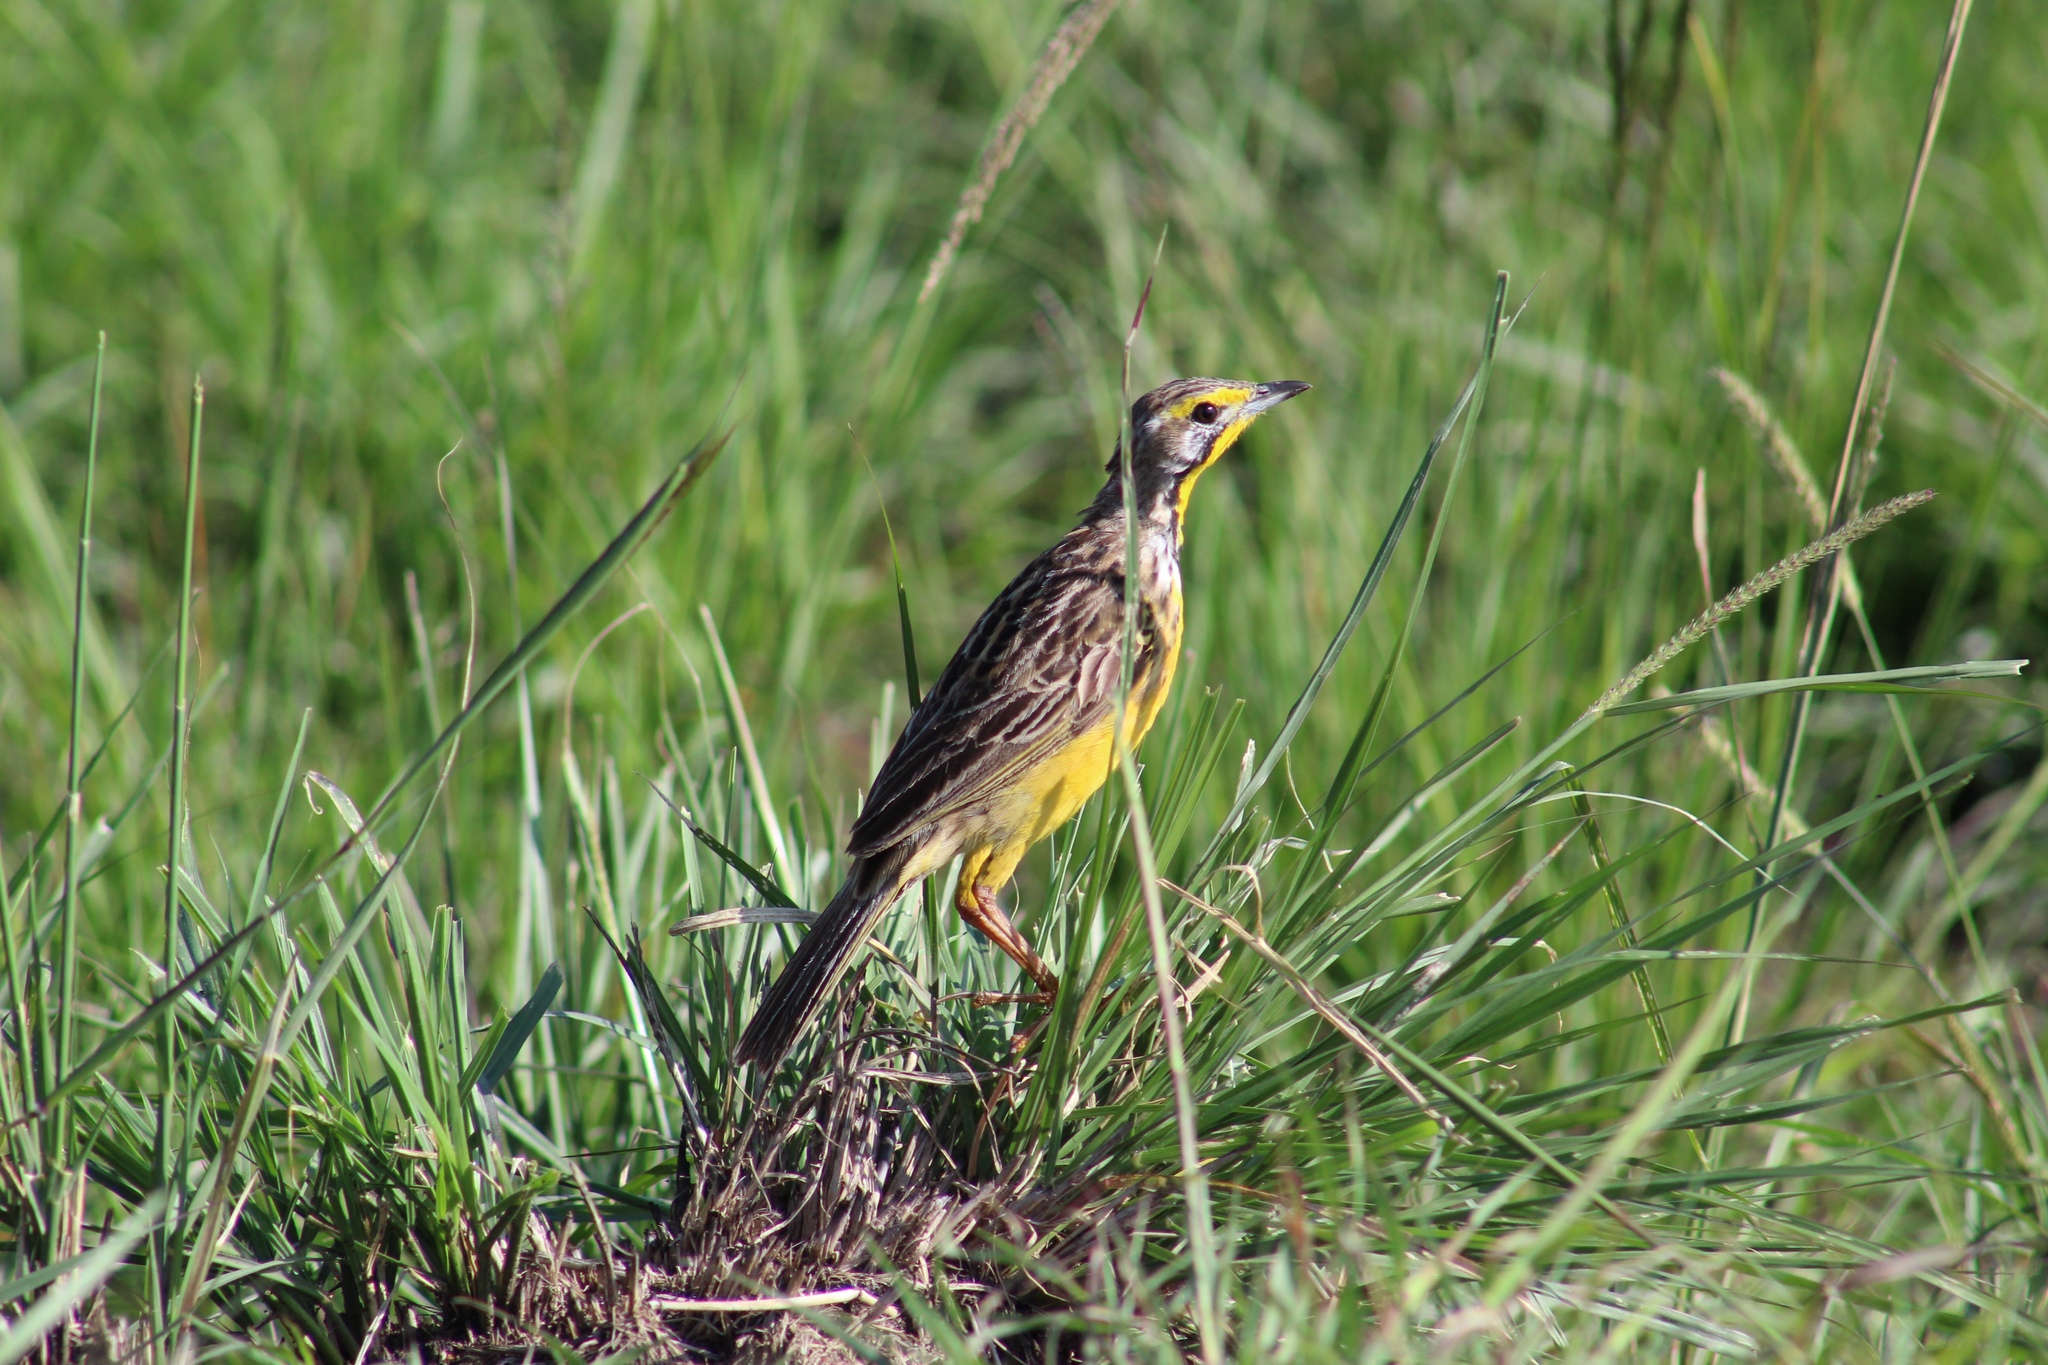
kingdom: Animalia
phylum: Chordata
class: Aves
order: Passeriformes
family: Motacillidae
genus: Macronyx
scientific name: Macronyx croceus
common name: Yellow-throated longclaw
